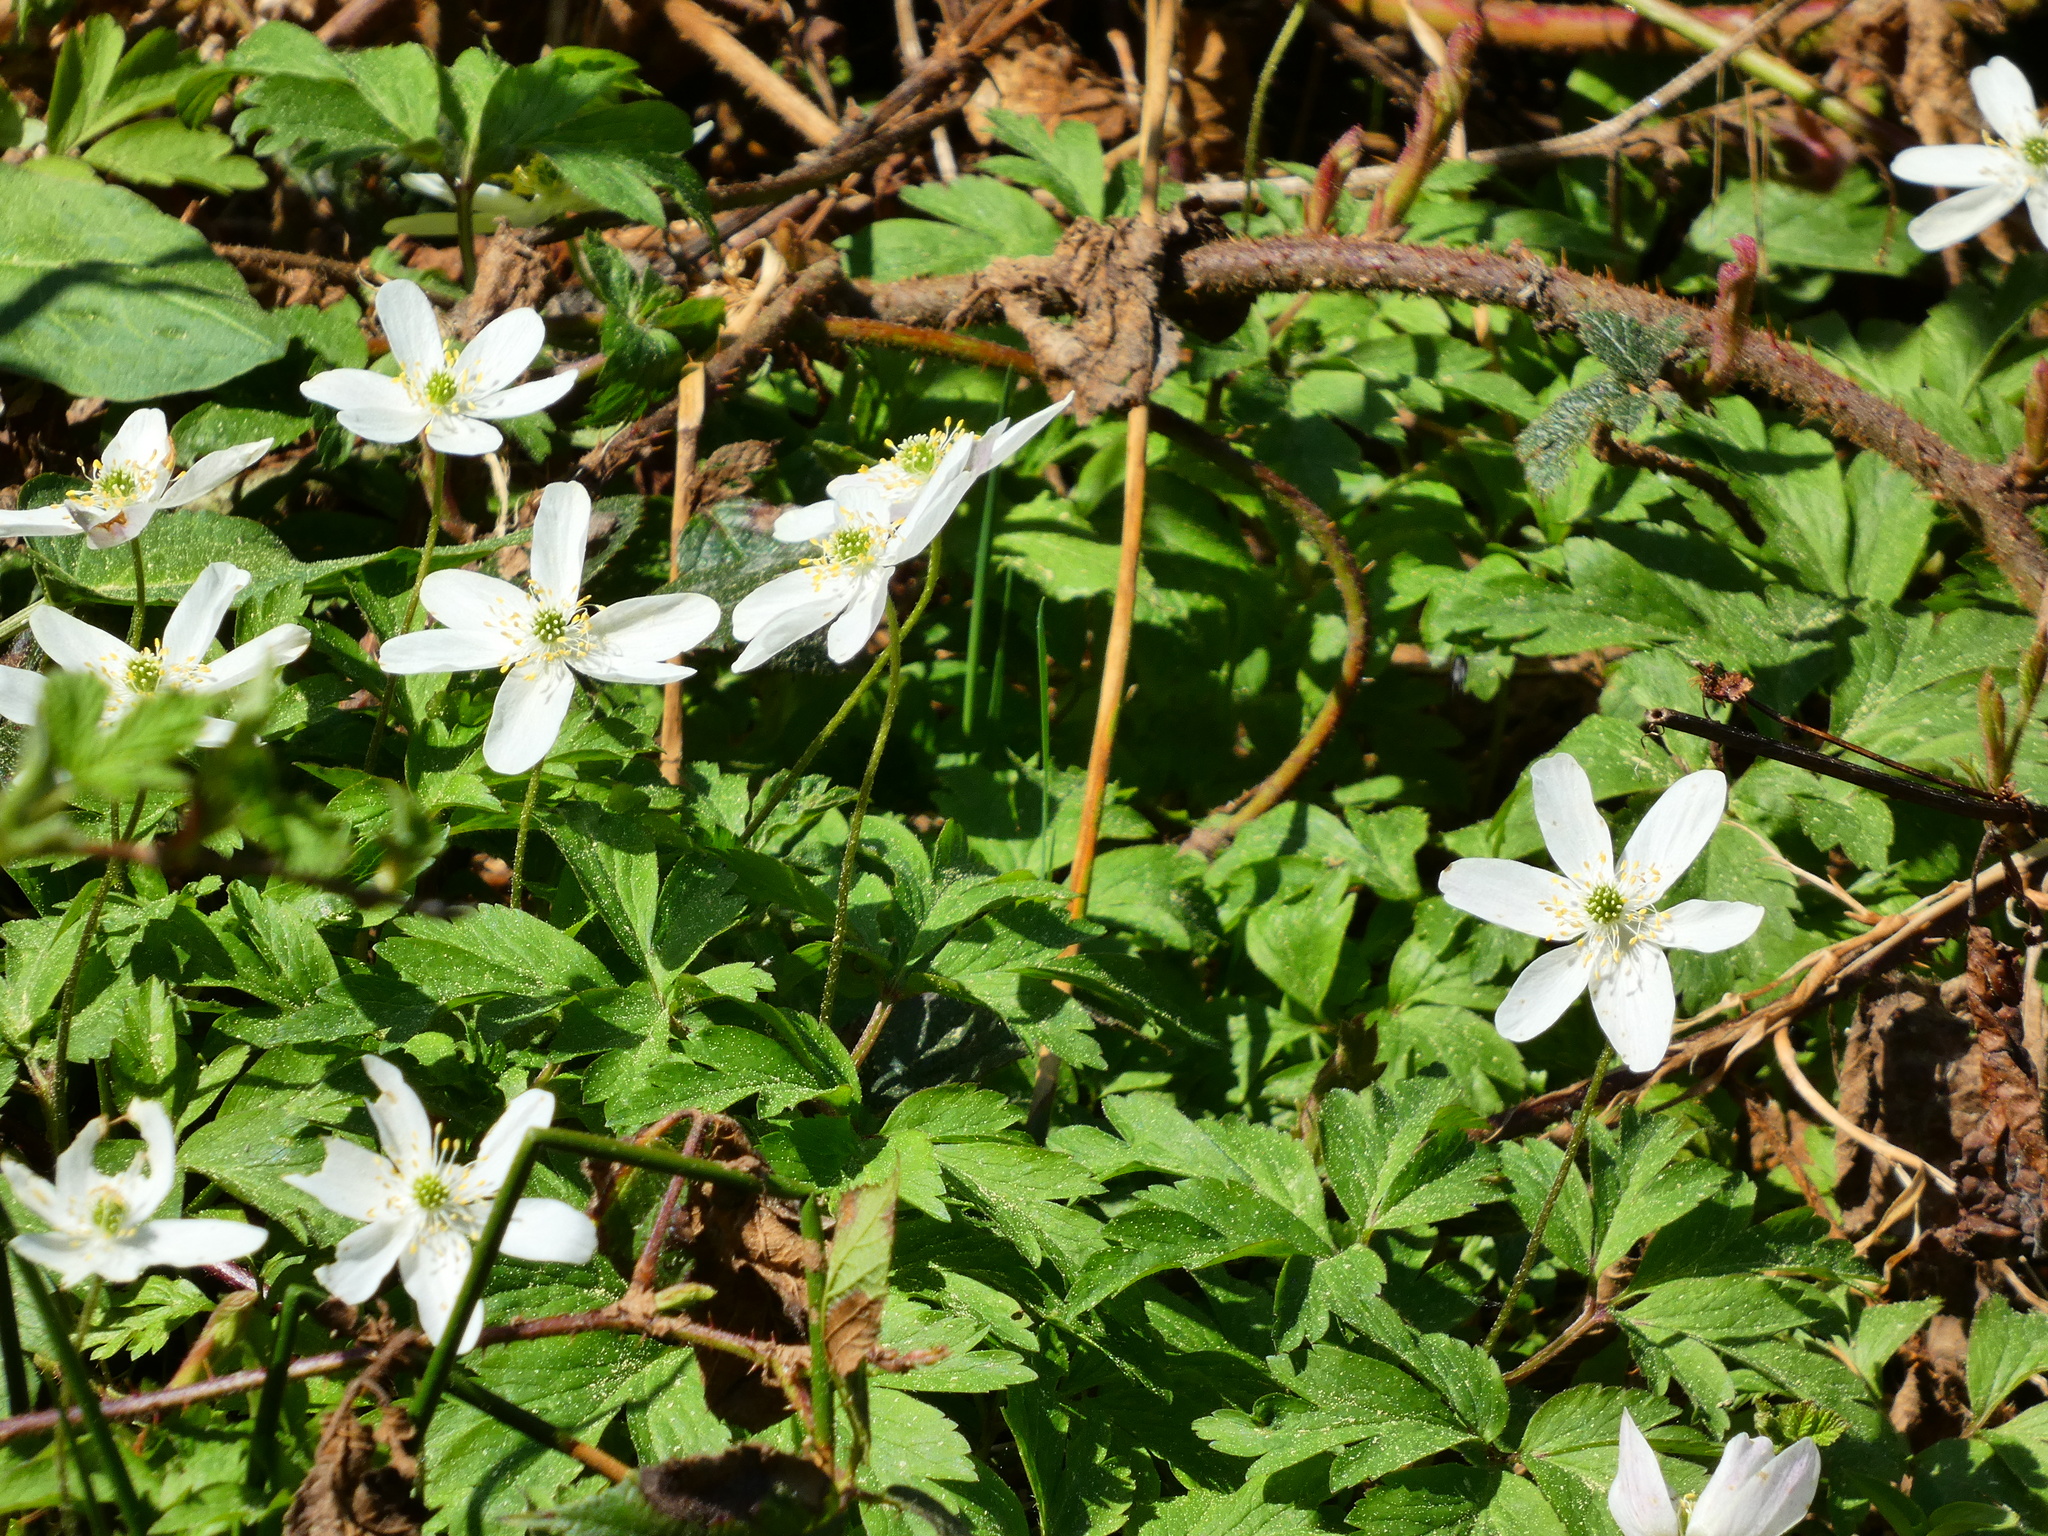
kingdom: Plantae
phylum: Tracheophyta
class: Magnoliopsida
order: Ranunculales
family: Ranunculaceae
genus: Anemone
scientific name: Anemone nemorosa
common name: Wood anemone
